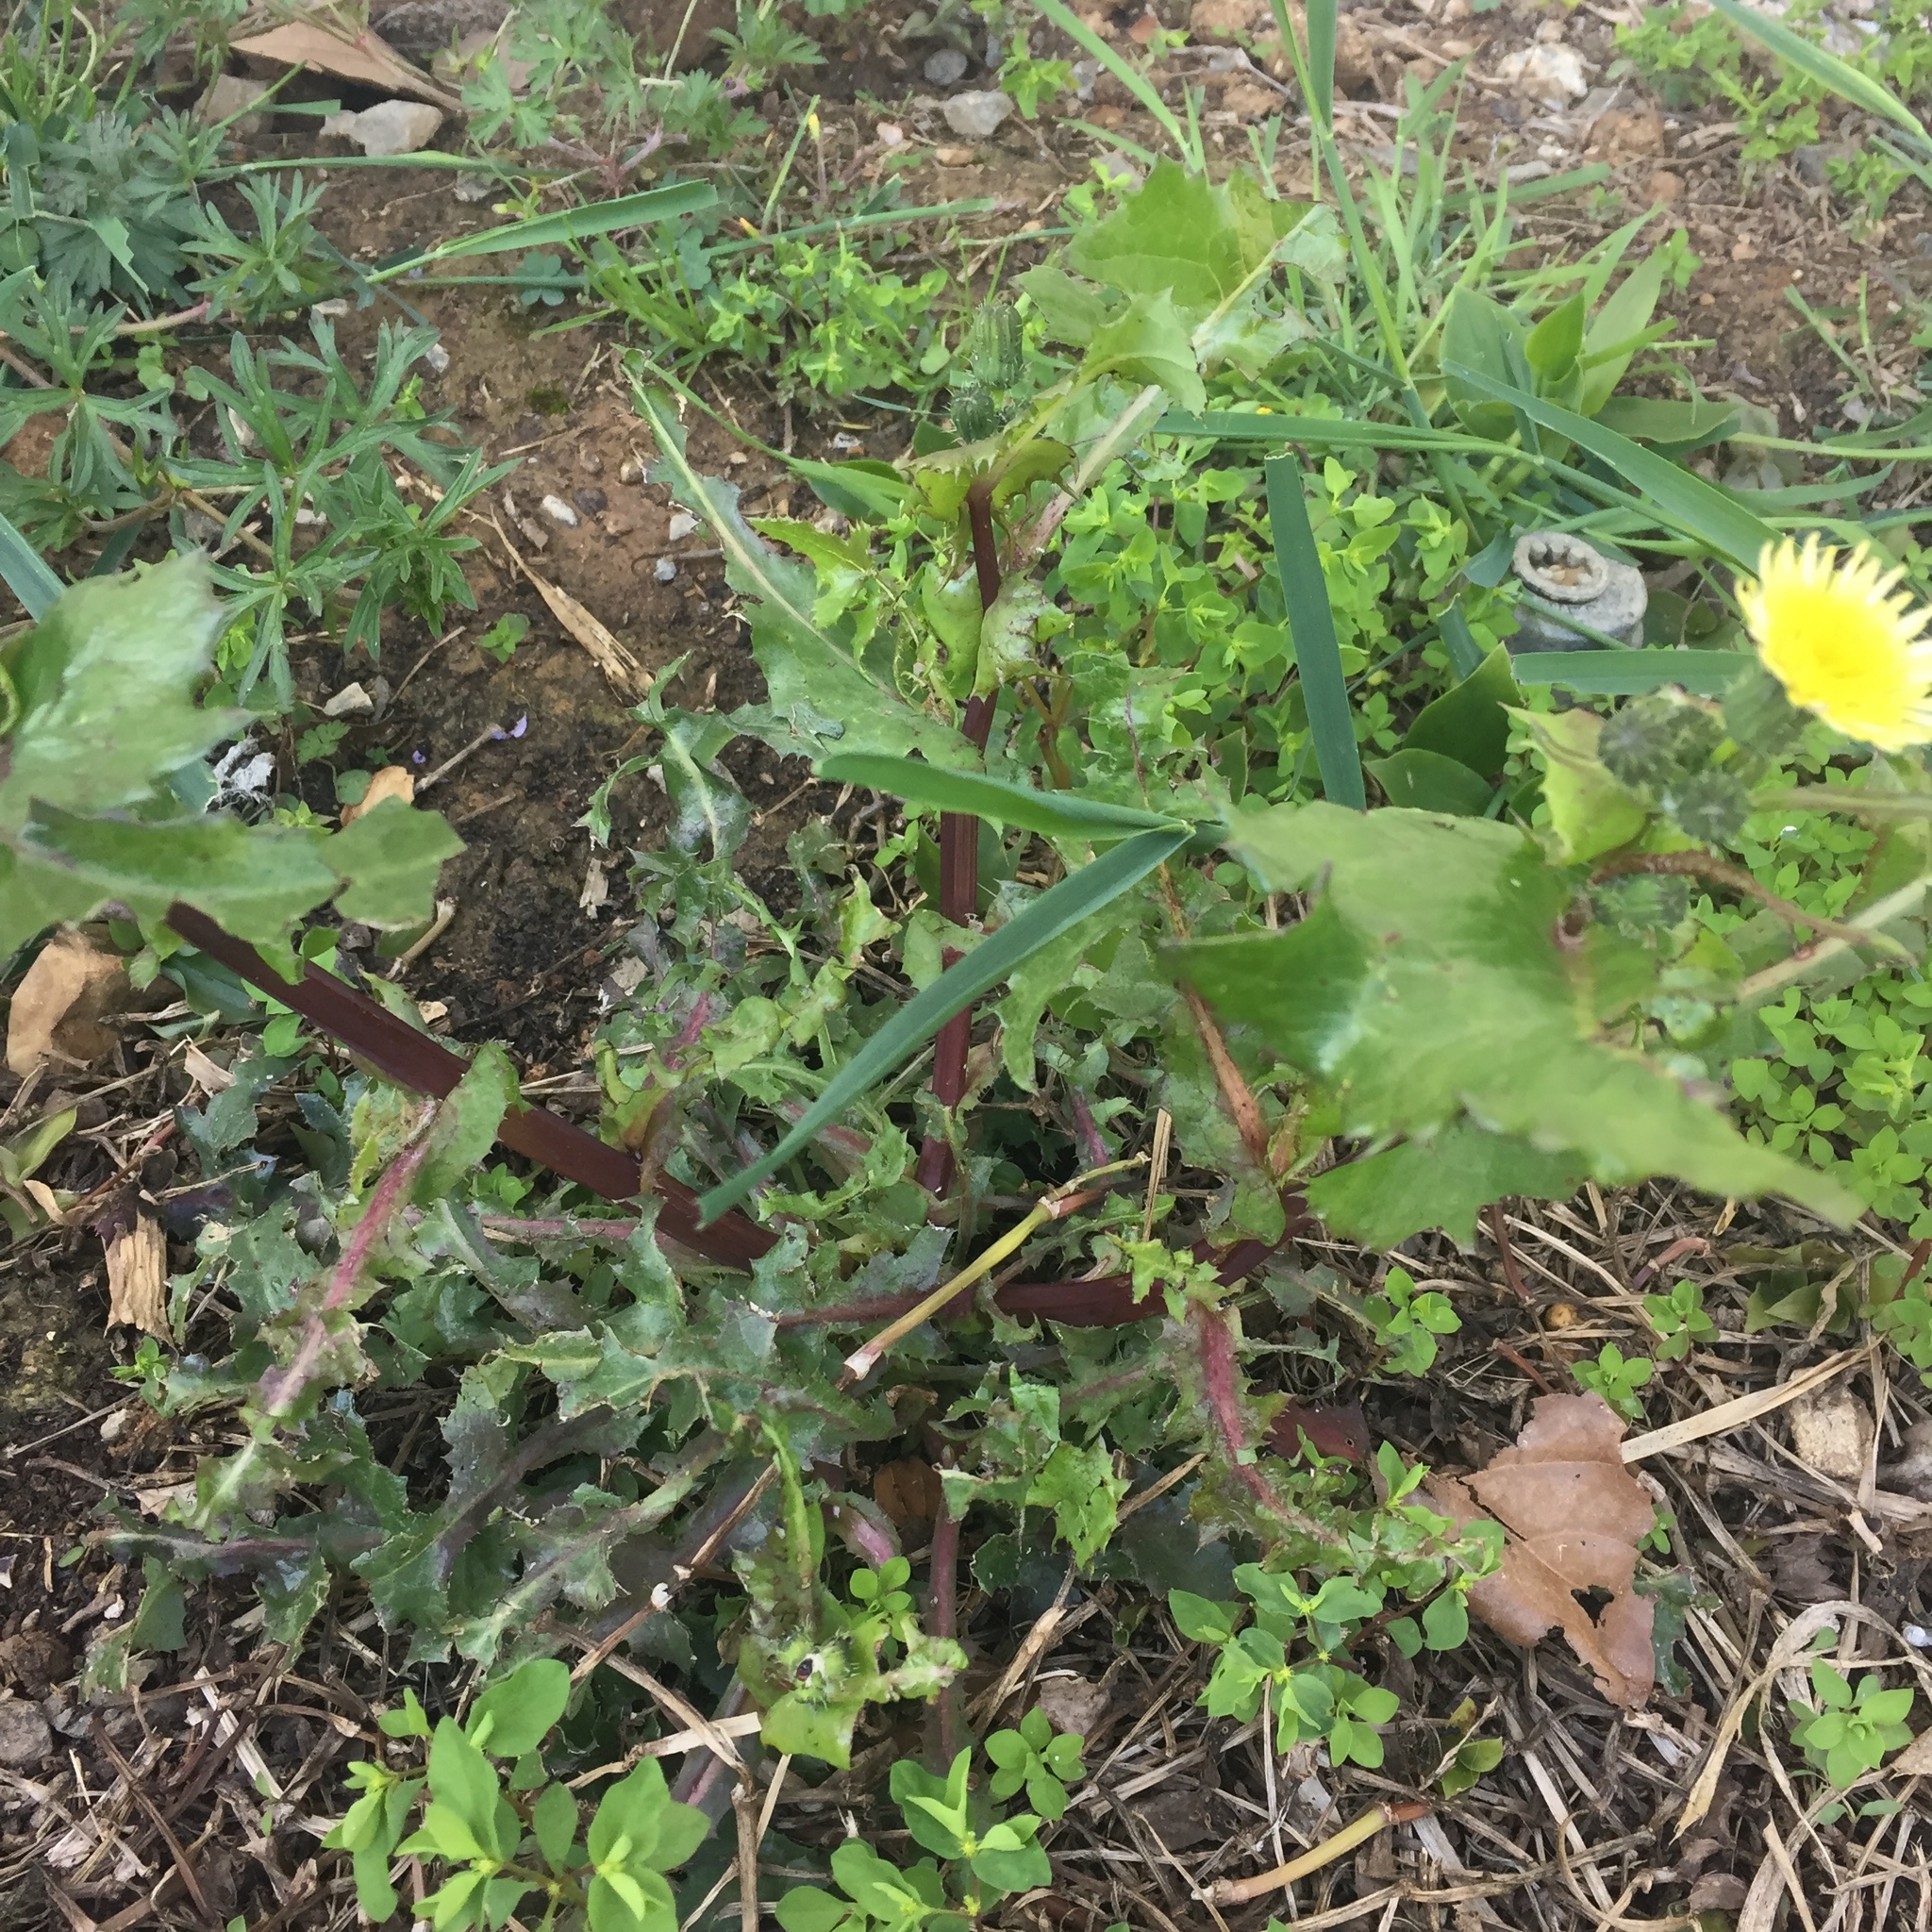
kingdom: Plantae
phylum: Tracheophyta
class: Magnoliopsida
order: Asterales
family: Asteraceae
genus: Sonchus
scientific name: Sonchus oleraceus
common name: Common sowthistle
